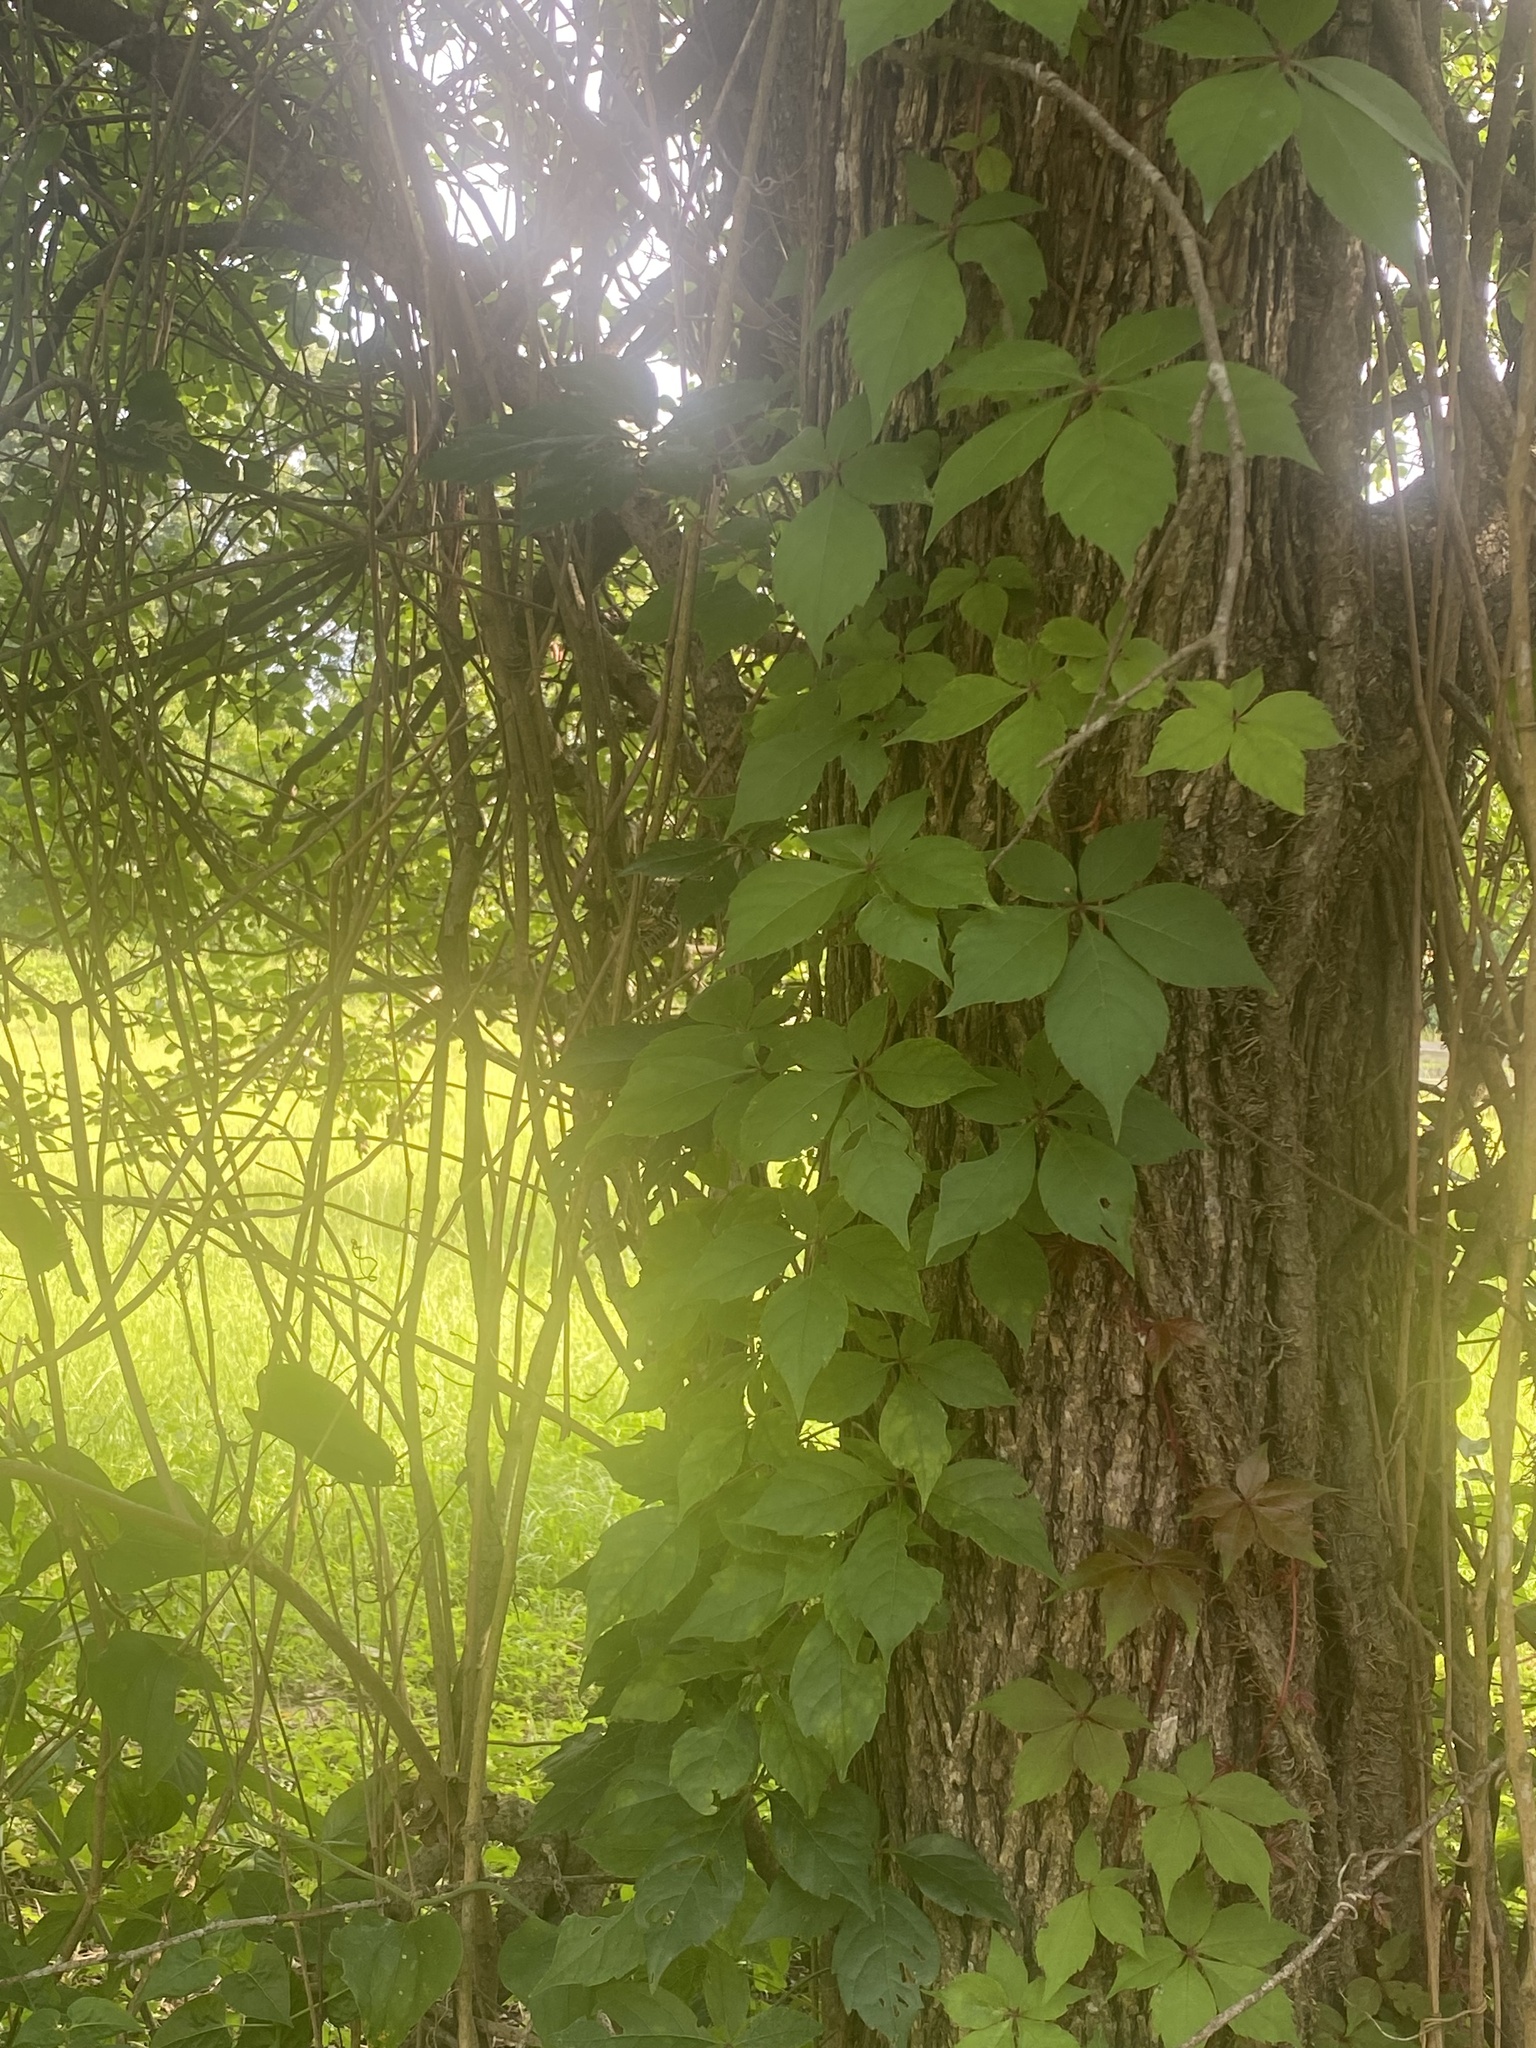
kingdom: Plantae
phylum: Tracheophyta
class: Magnoliopsida
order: Vitales
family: Vitaceae
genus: Parthenocissus
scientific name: Parthenocissus quinquefolia
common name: Virginia-creeper
